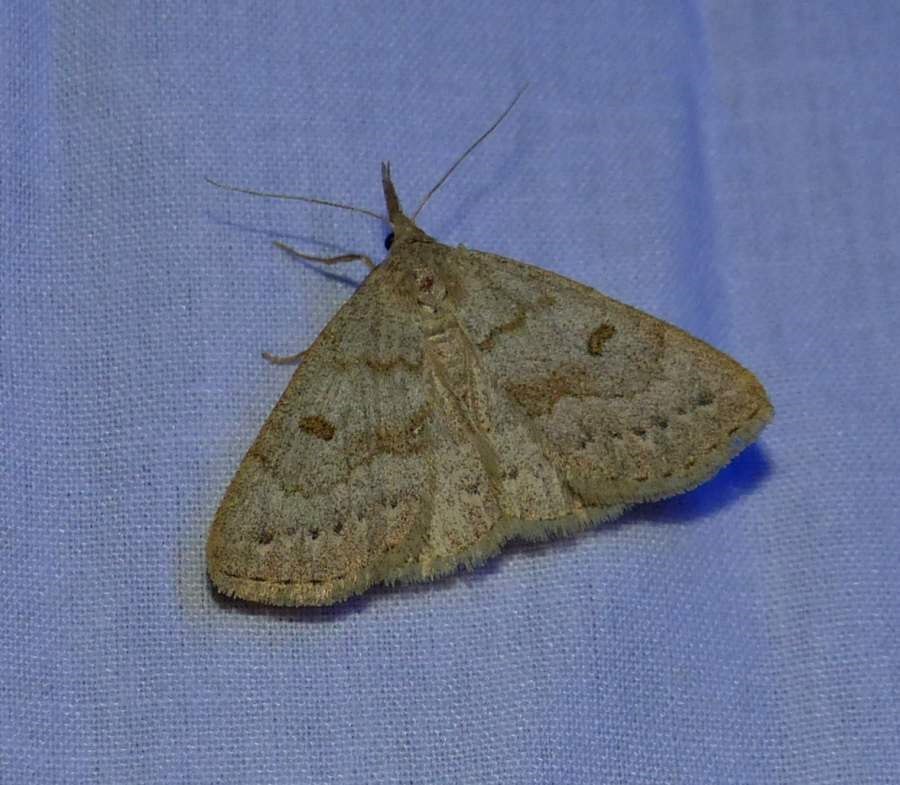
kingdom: Animalia
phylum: Arthropoda
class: Insecta
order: Lepidoptera
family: Erebidae
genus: Macrochilo
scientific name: Macrochilo morbidalis
